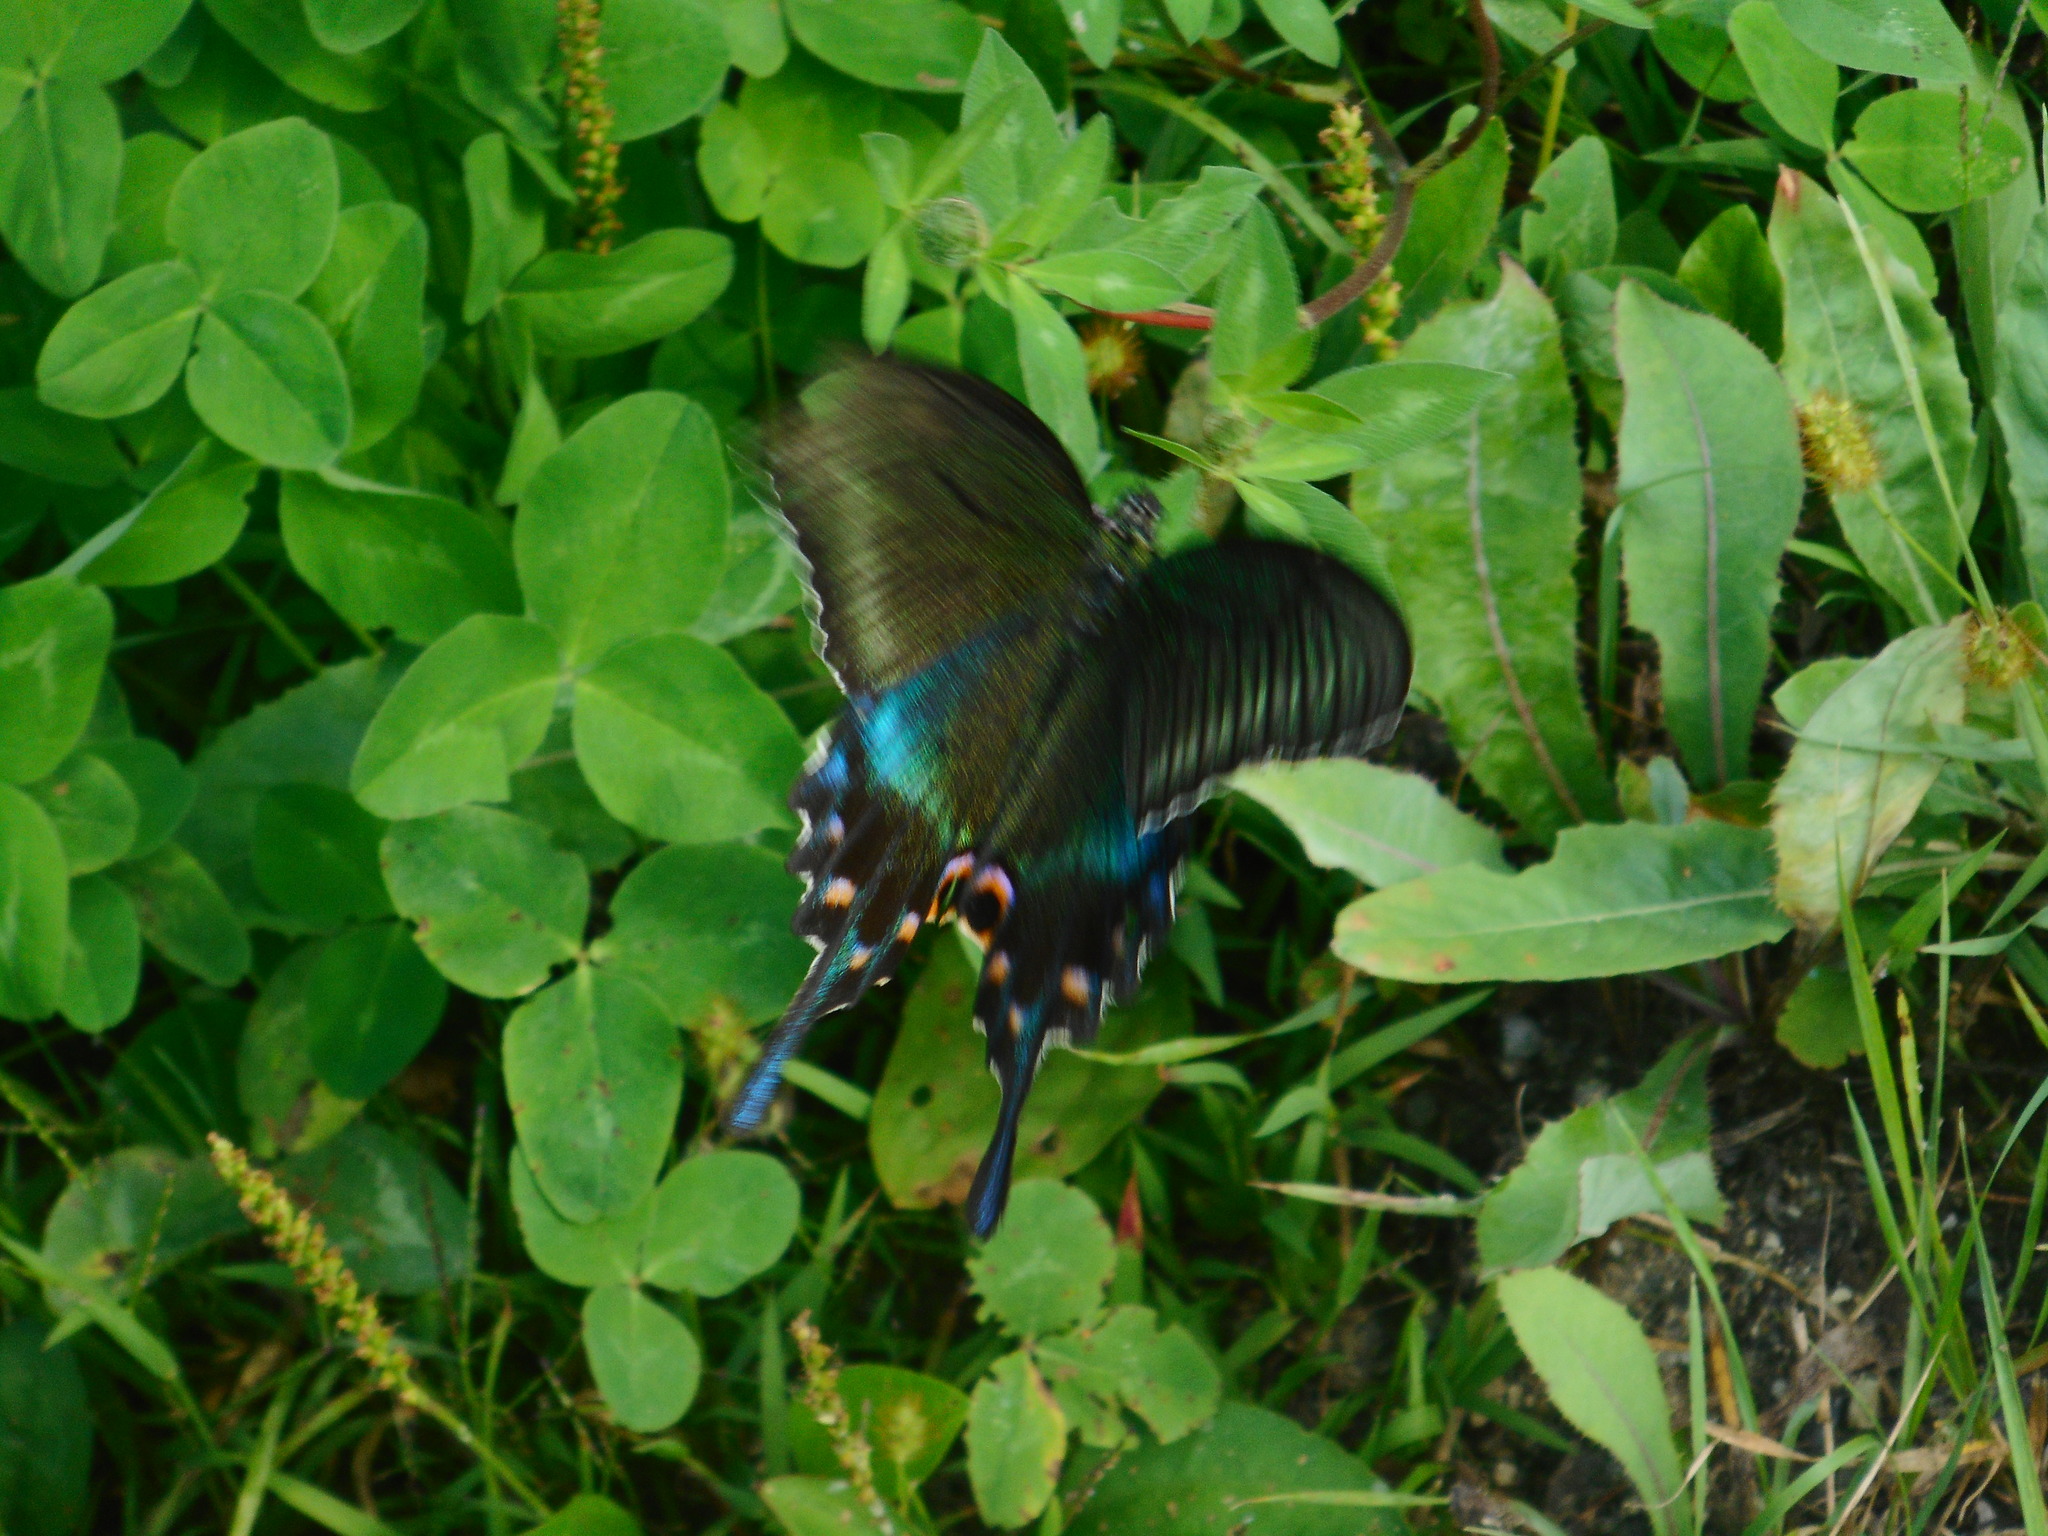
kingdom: Animalia
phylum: Arthropoda
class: Insecta
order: Lepidoptera
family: Papilionidae
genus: Papilio
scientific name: Papilio maackii
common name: Alpine black swallowtail
